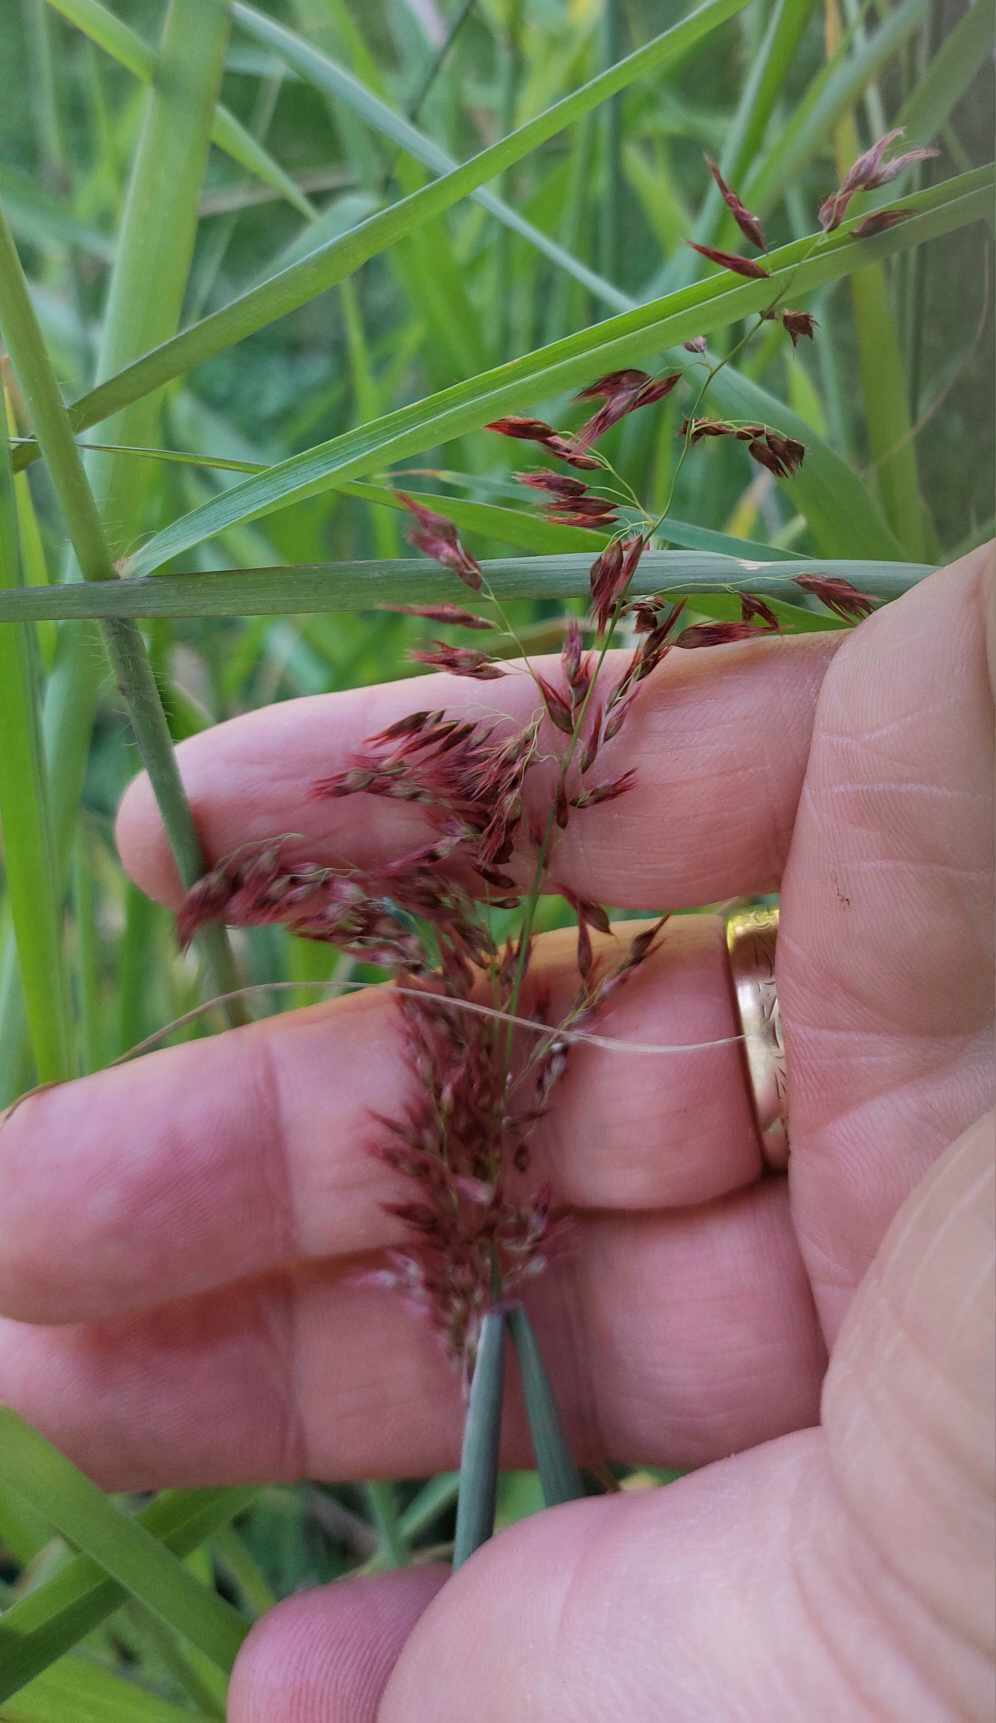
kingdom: Plantae
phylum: Tracheophyta
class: Liliopsida
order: Poales
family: Poaceae
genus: Melinis
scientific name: Melinis repens
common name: Rose natal grass
